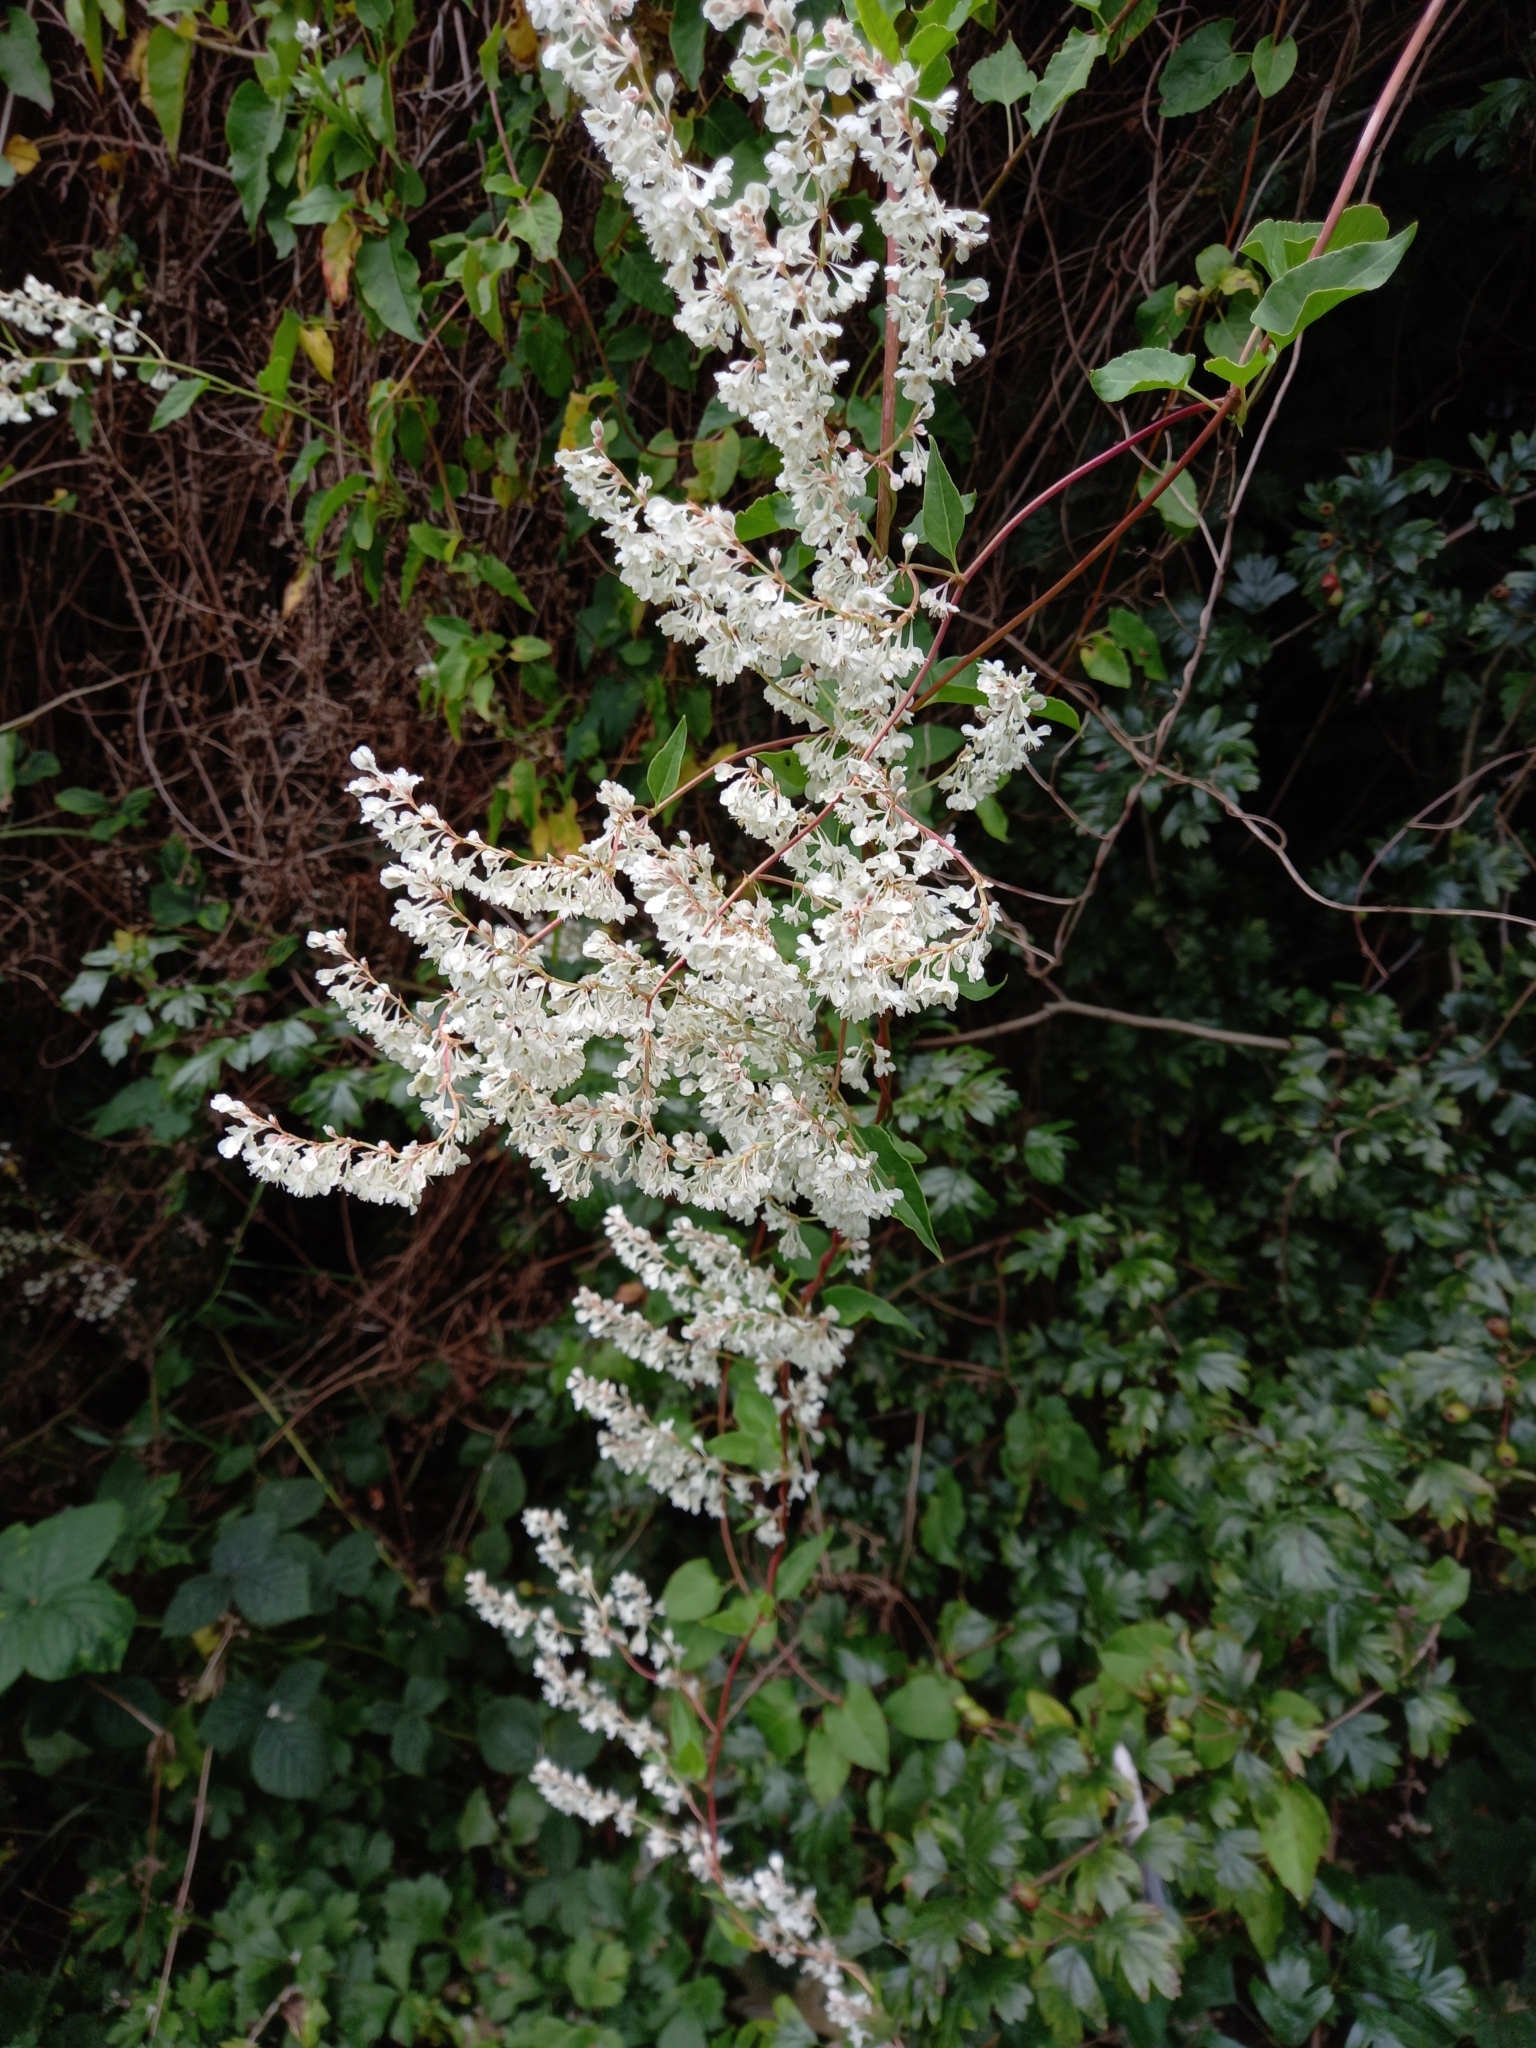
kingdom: Plantae
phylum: Tracheophyta
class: Magnoliopsida
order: Caryophyllales
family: Polygonaceae
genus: Fallopia
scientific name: Fallopia baldschuanica
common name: Russian-vine
